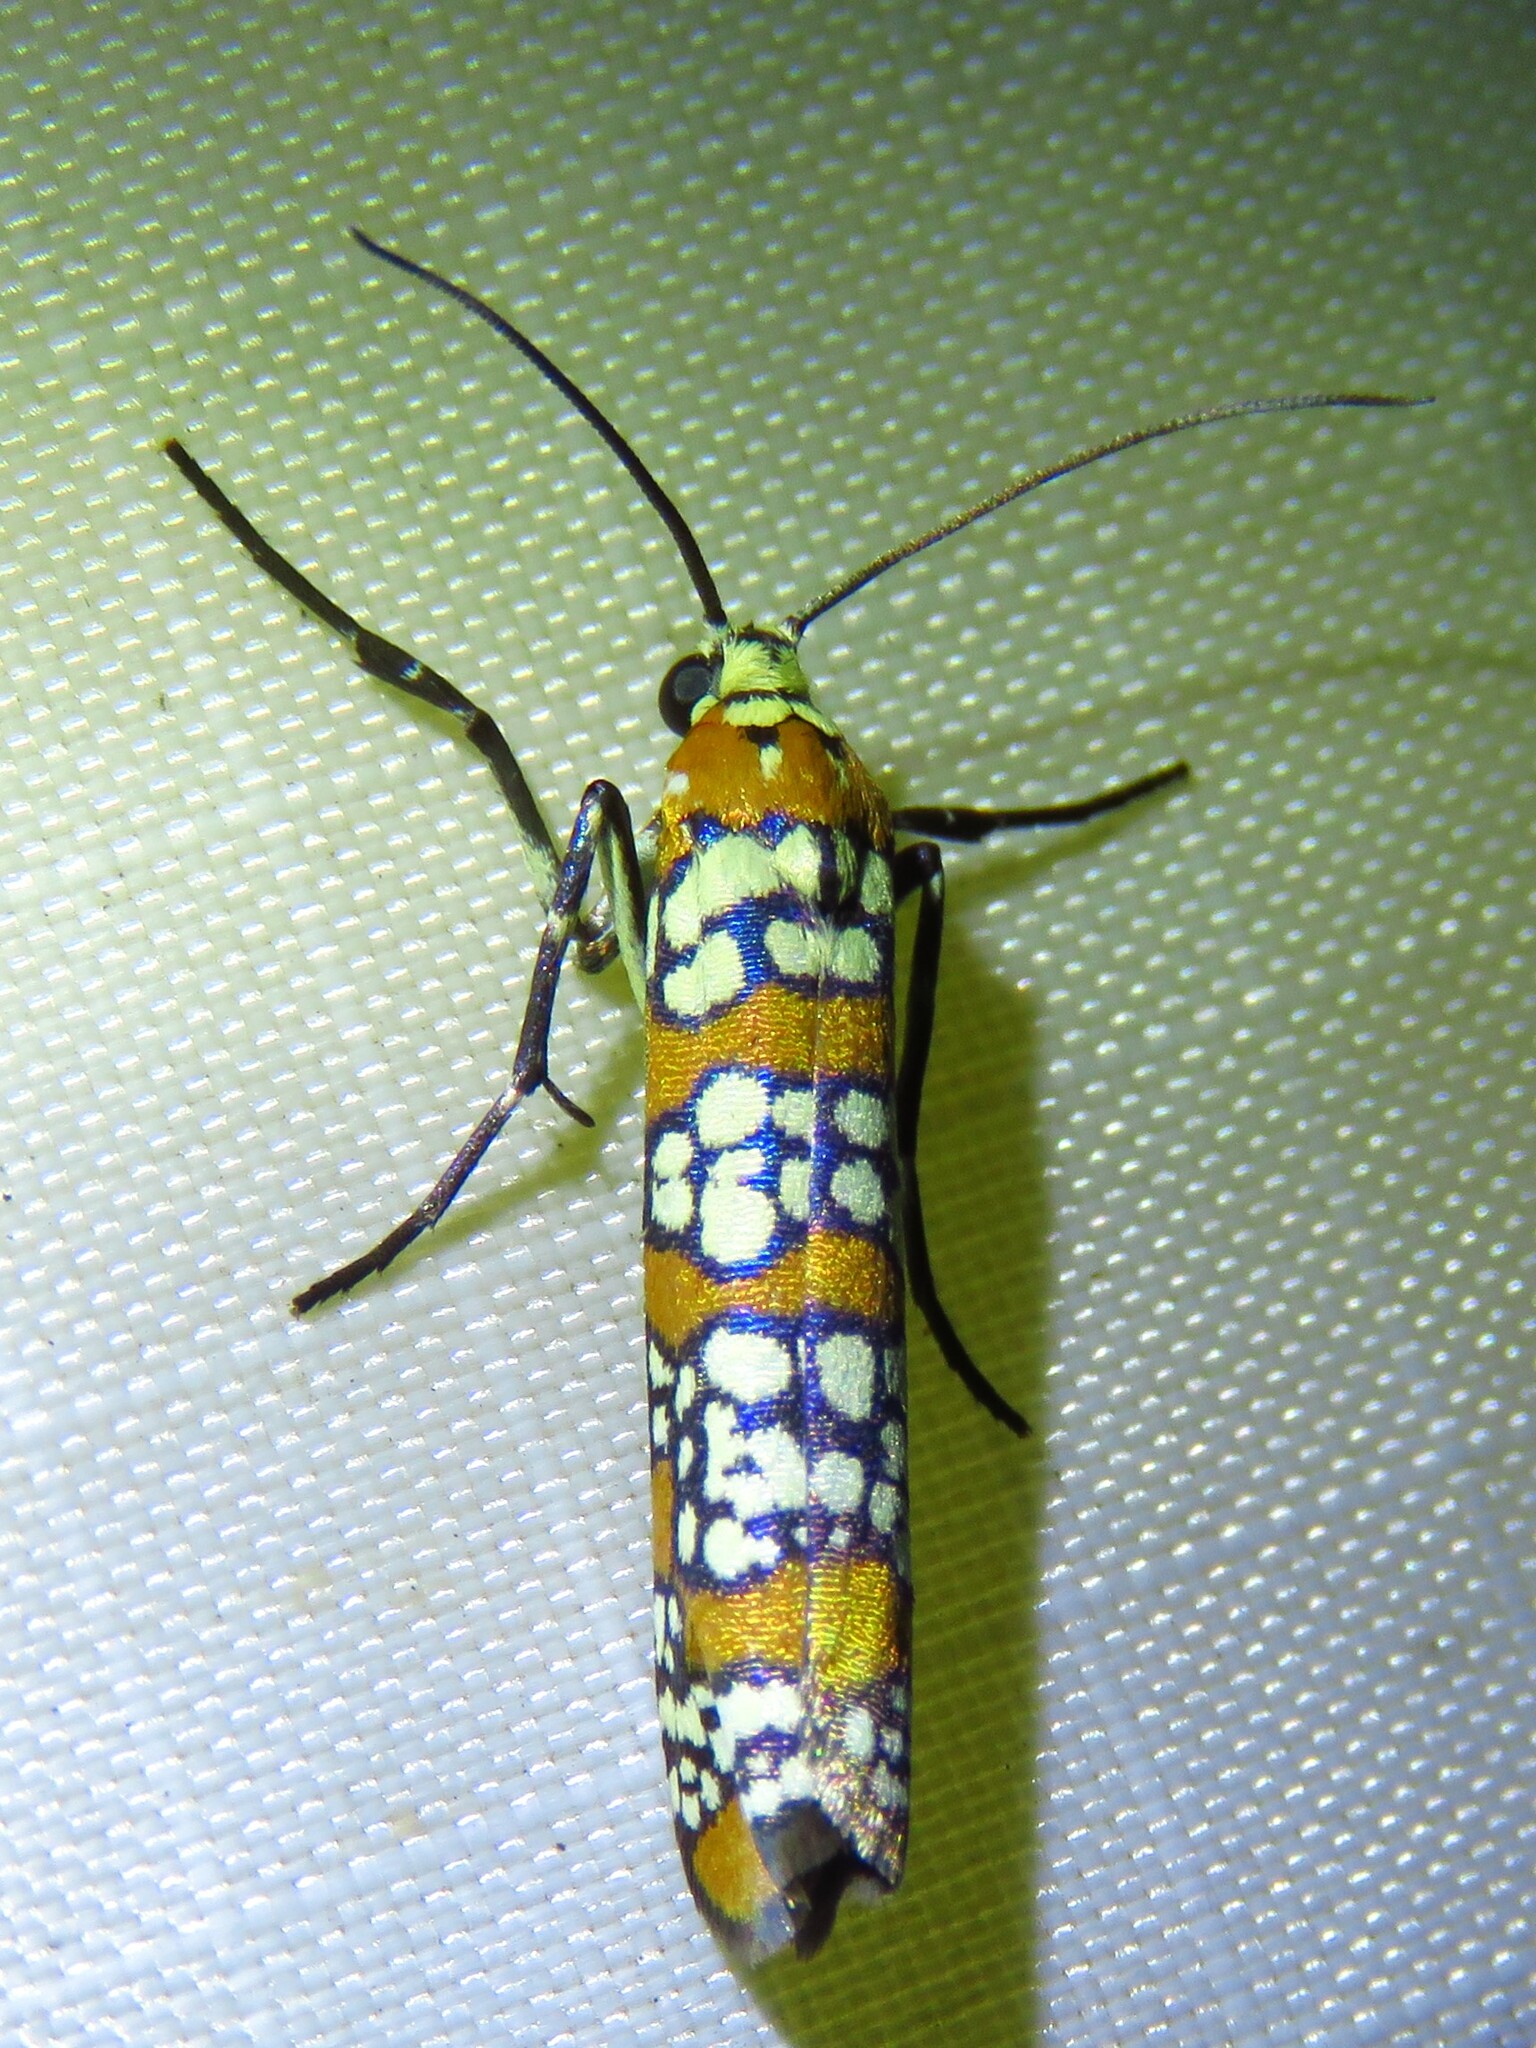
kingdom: Animalia
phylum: Arthropoda
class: Insecta
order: Lepidoptera
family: Attevidae
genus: Atteva
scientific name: Atteva punctella
